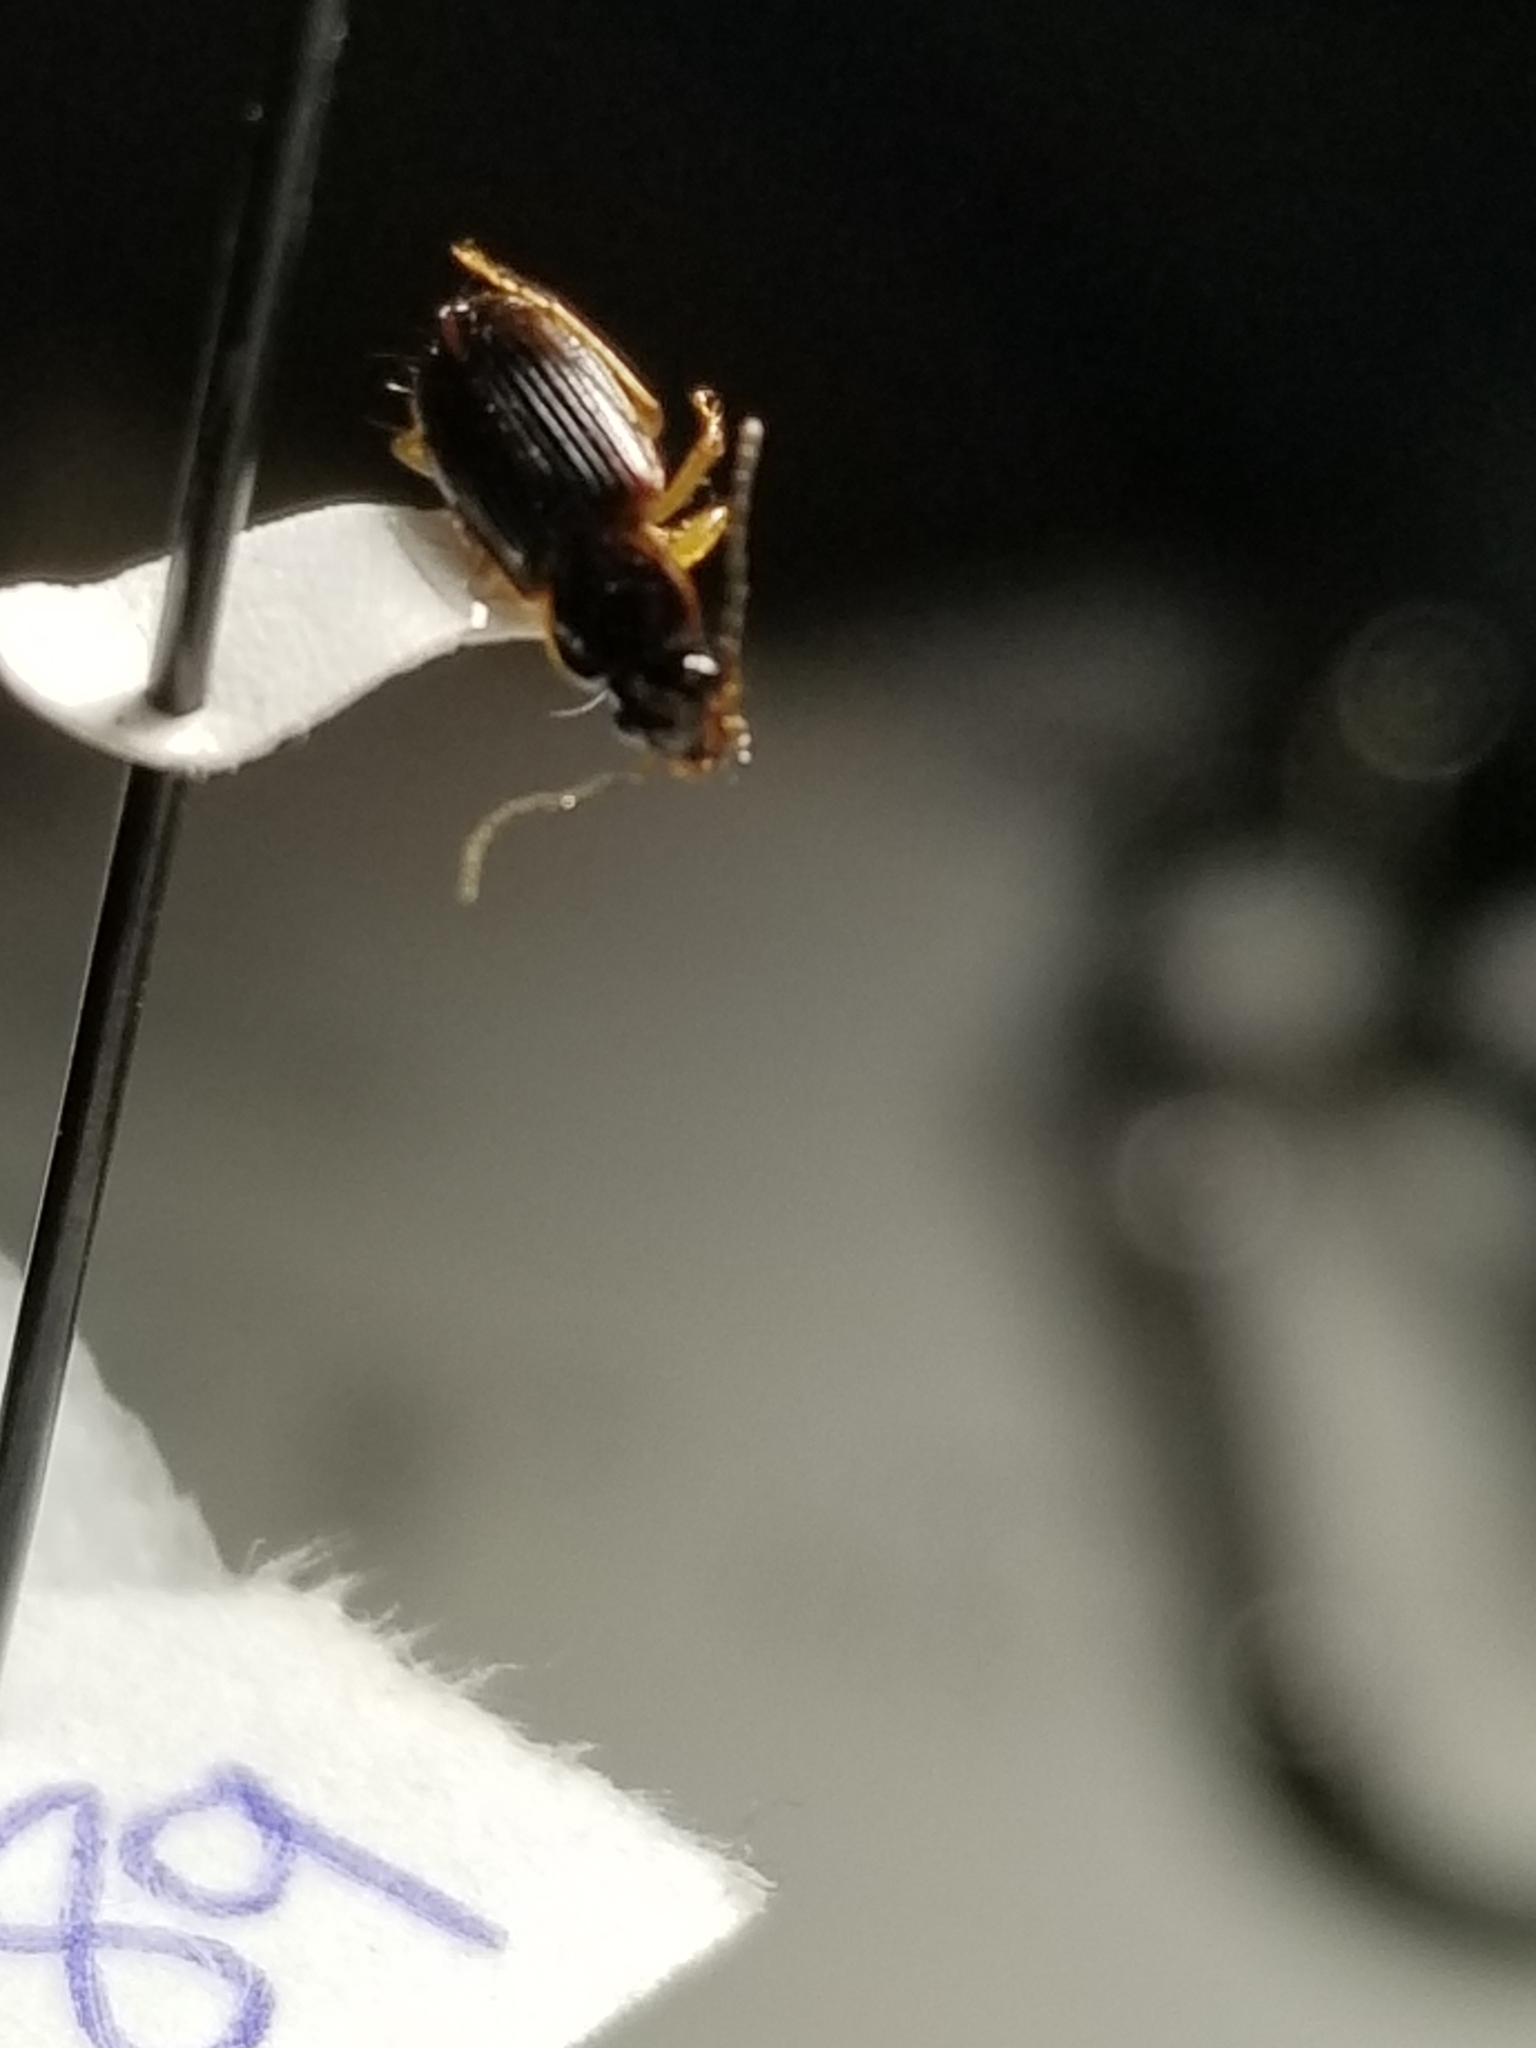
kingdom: Animalia
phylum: Arthropoda
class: Insecta
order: Coleoptera
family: Carabidae
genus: Stenolophus
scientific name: Stenolophus ochropezus
